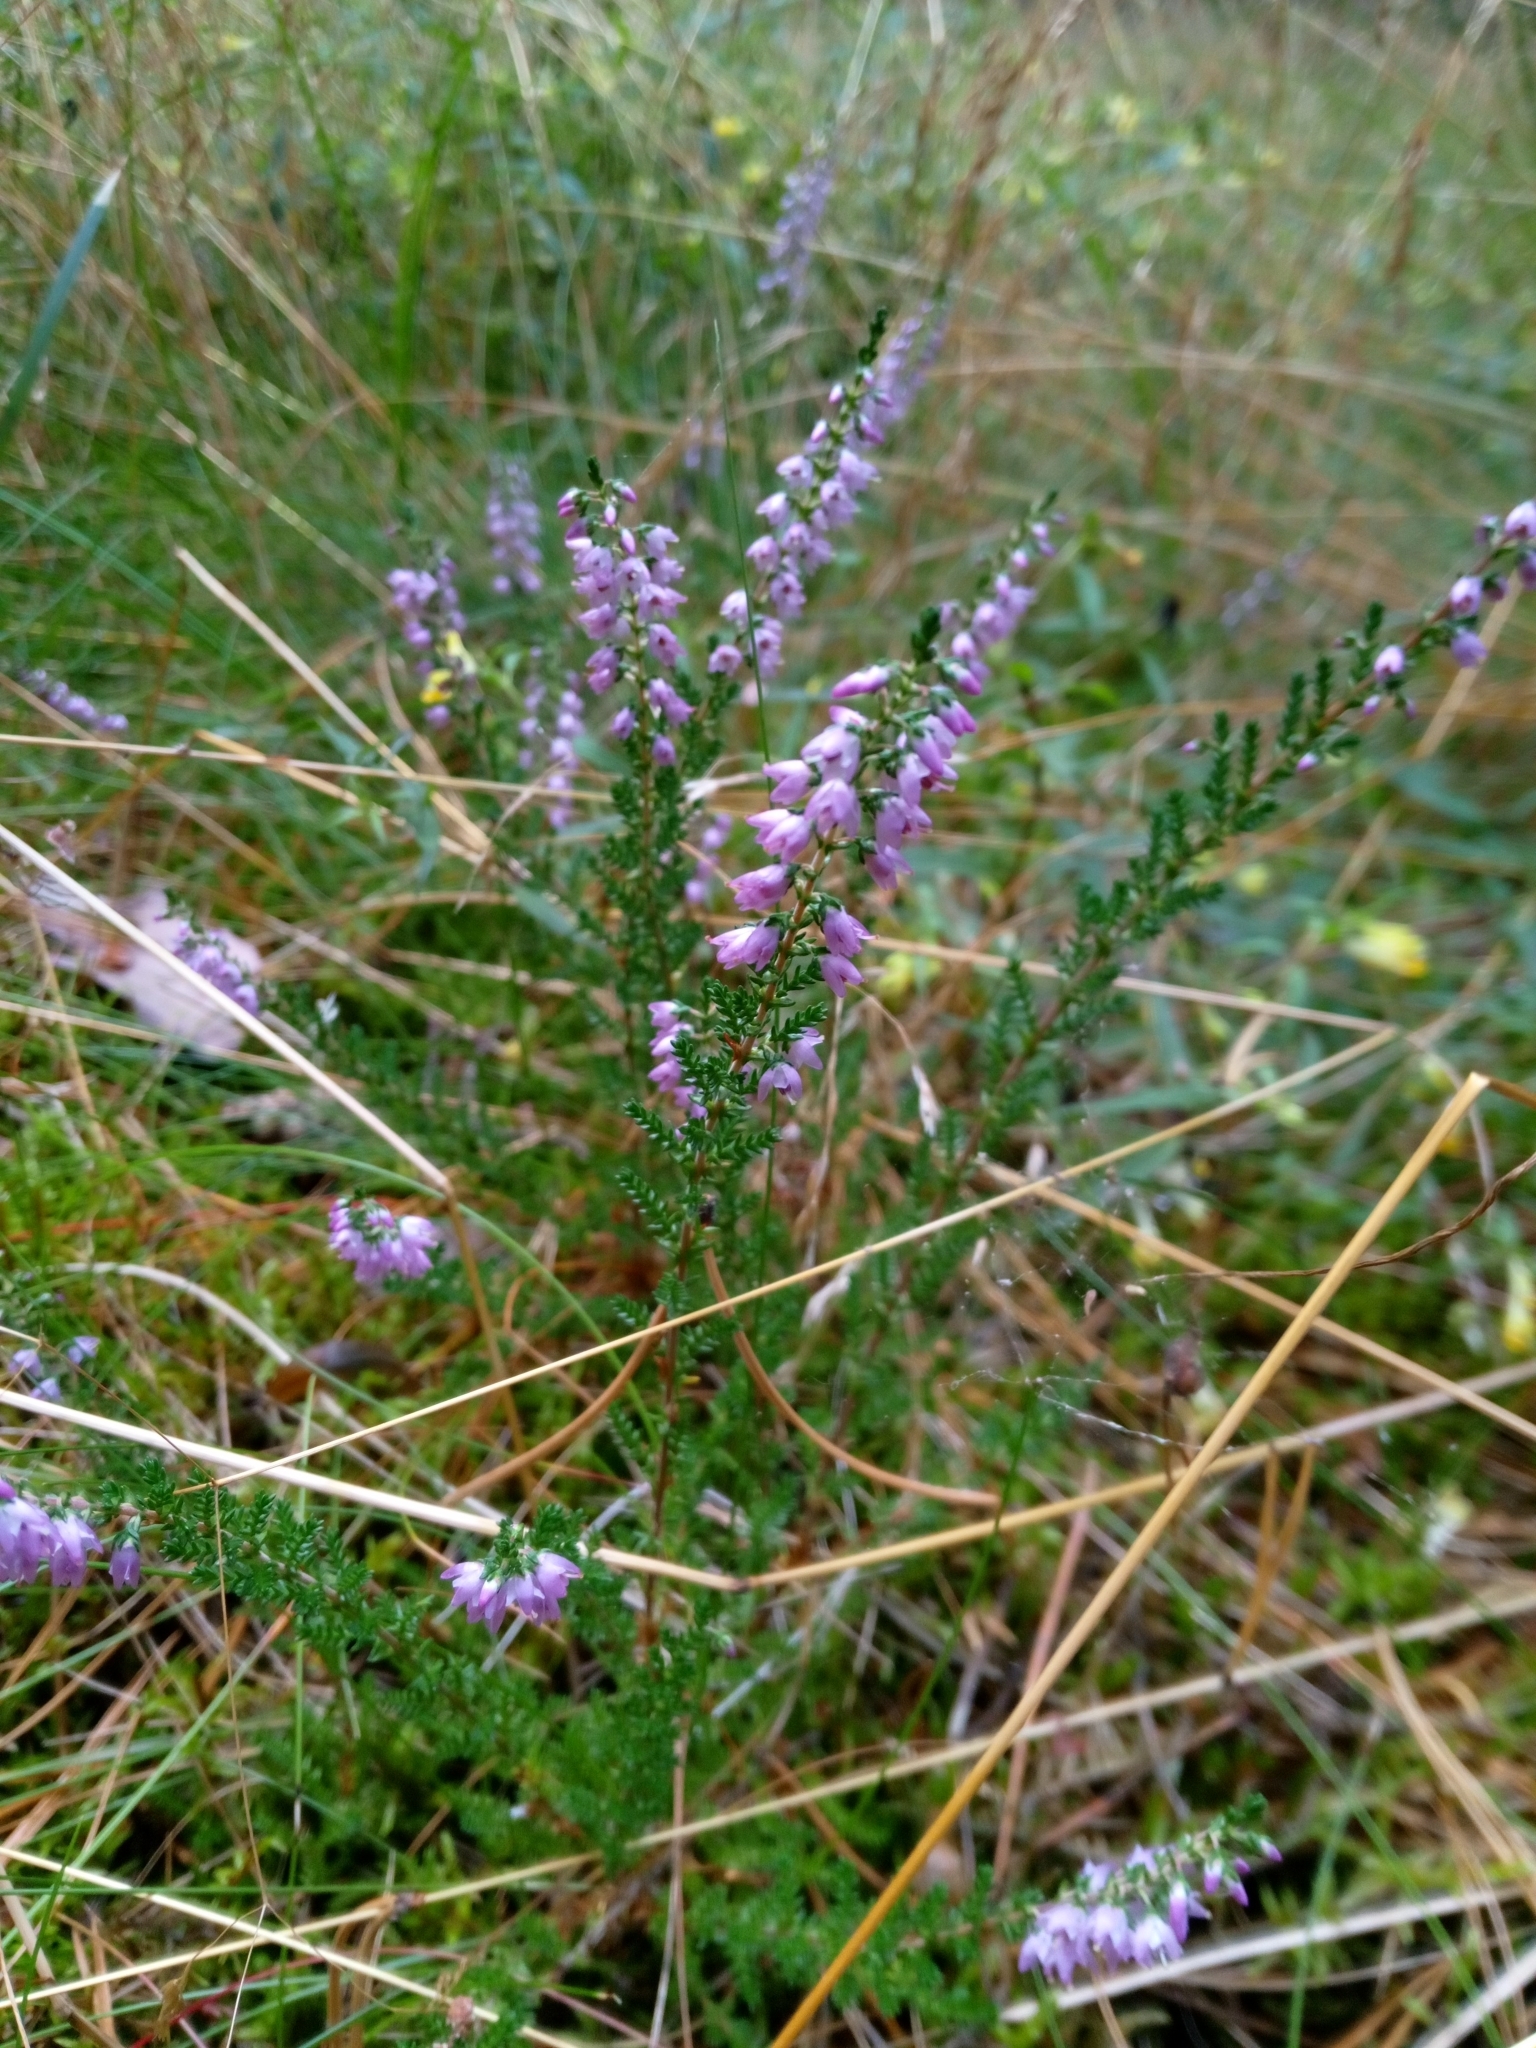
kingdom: Plantae
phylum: Tracheophyta
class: Magnoliopsida
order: Ericales
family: Ericaceae
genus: Calluna
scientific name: Calluna vulgaris
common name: Heather
